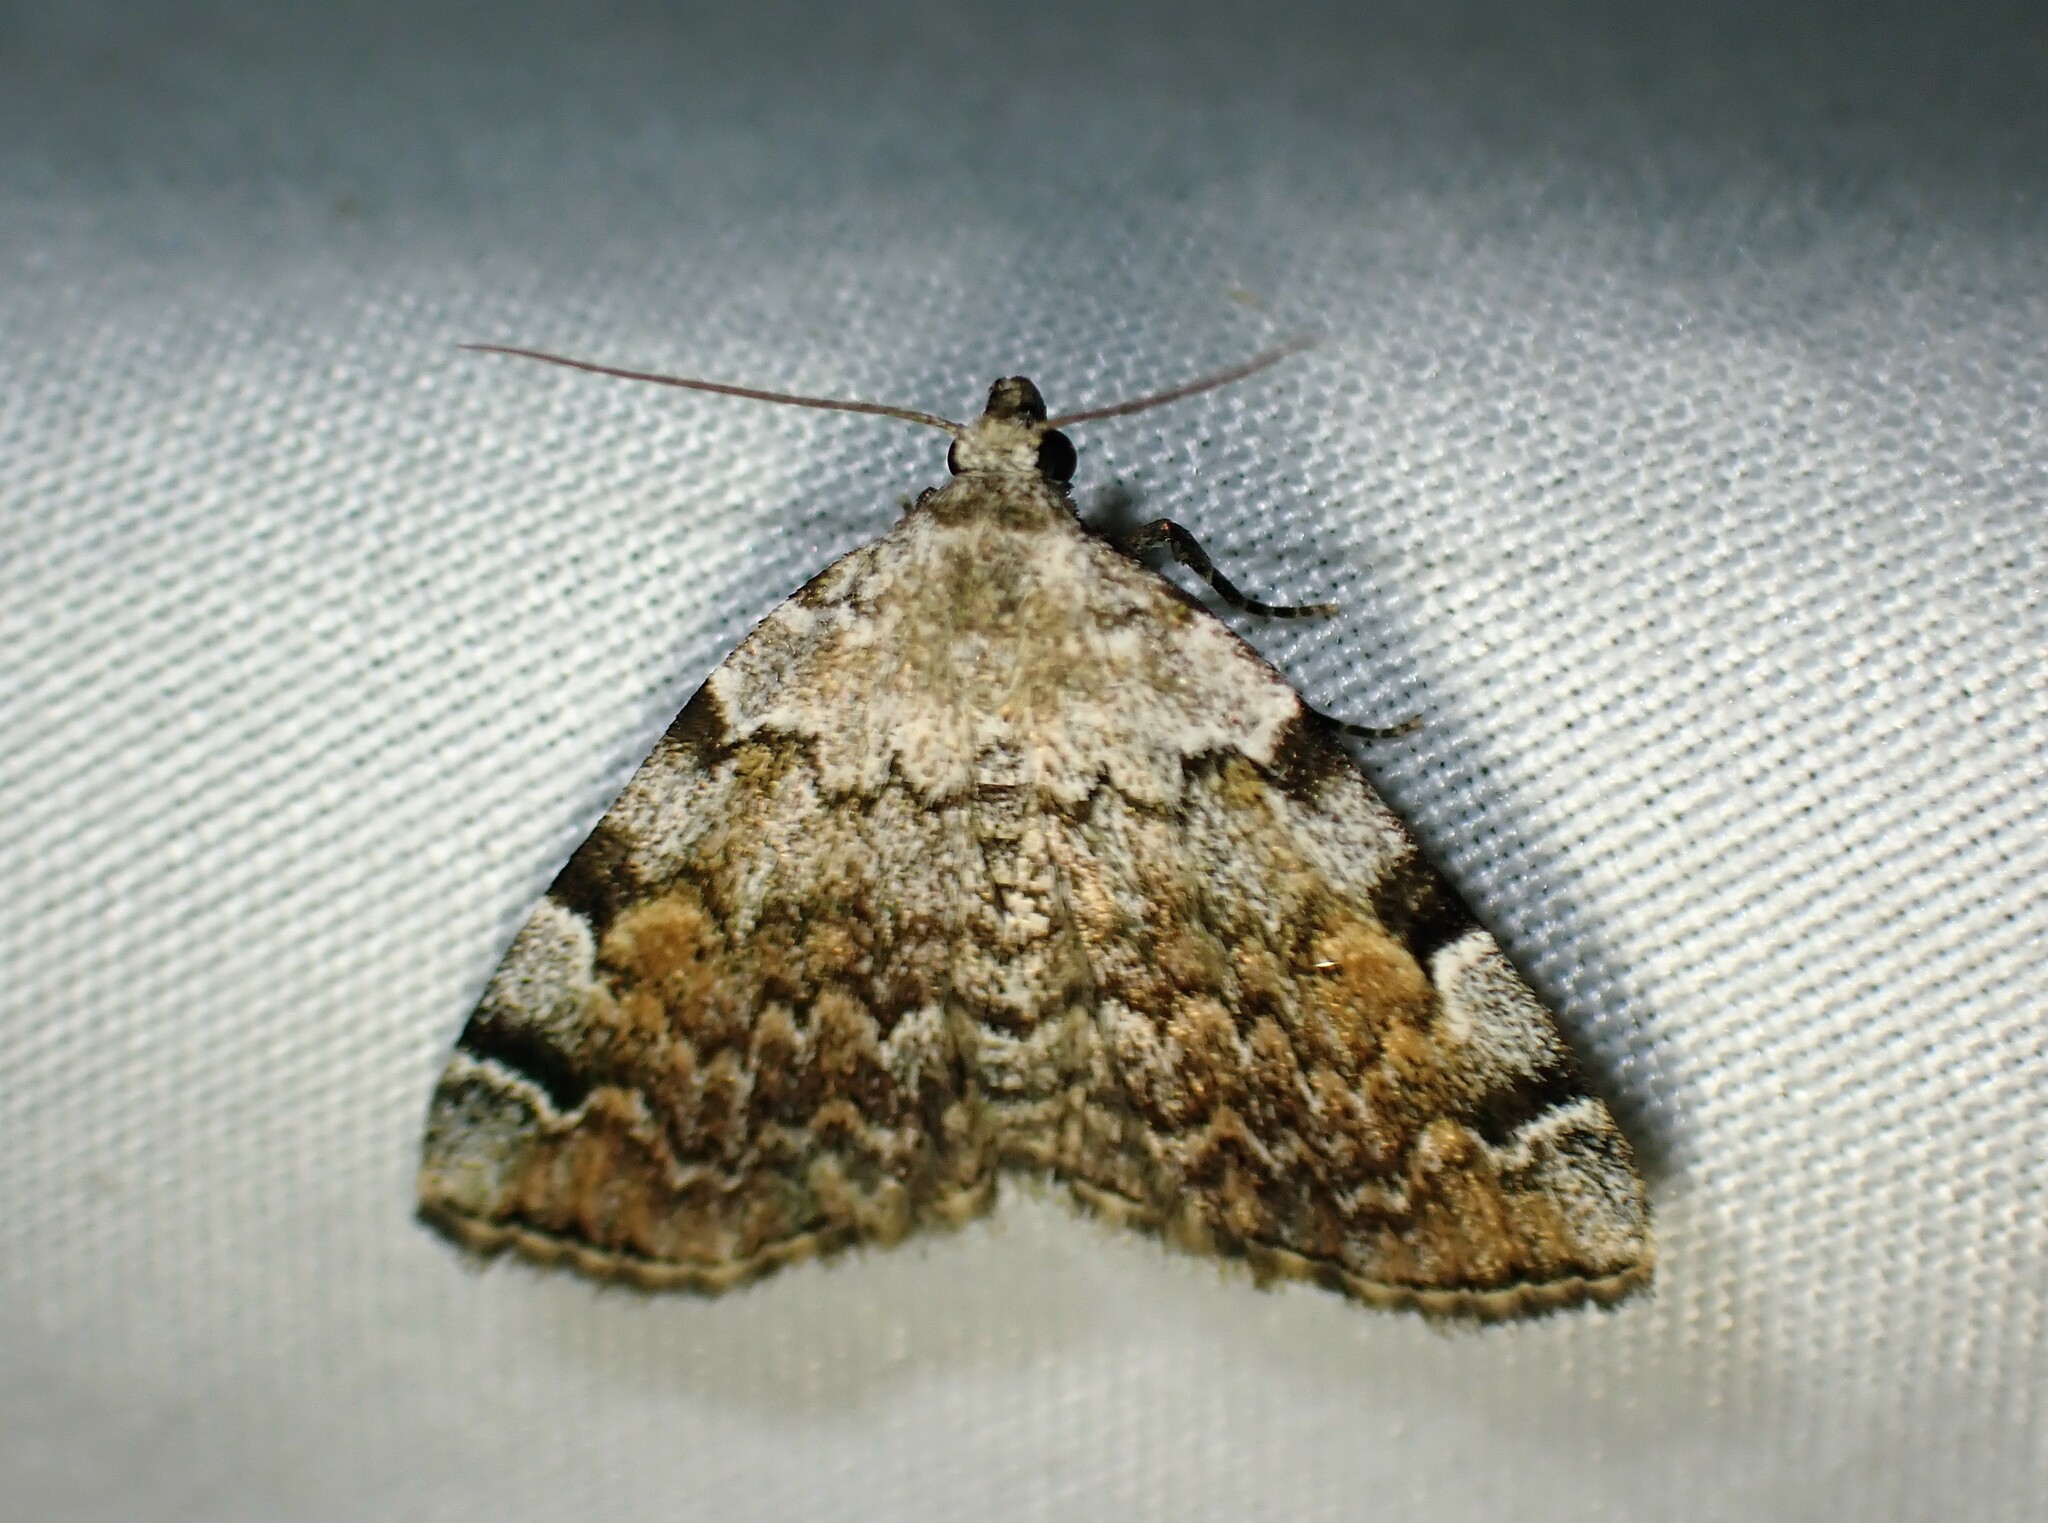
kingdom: Animalia
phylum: Arthropoda
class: Insecta
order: Lepidoptera
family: Erebidae
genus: Idia
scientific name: Idia americalis
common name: American idia moth
